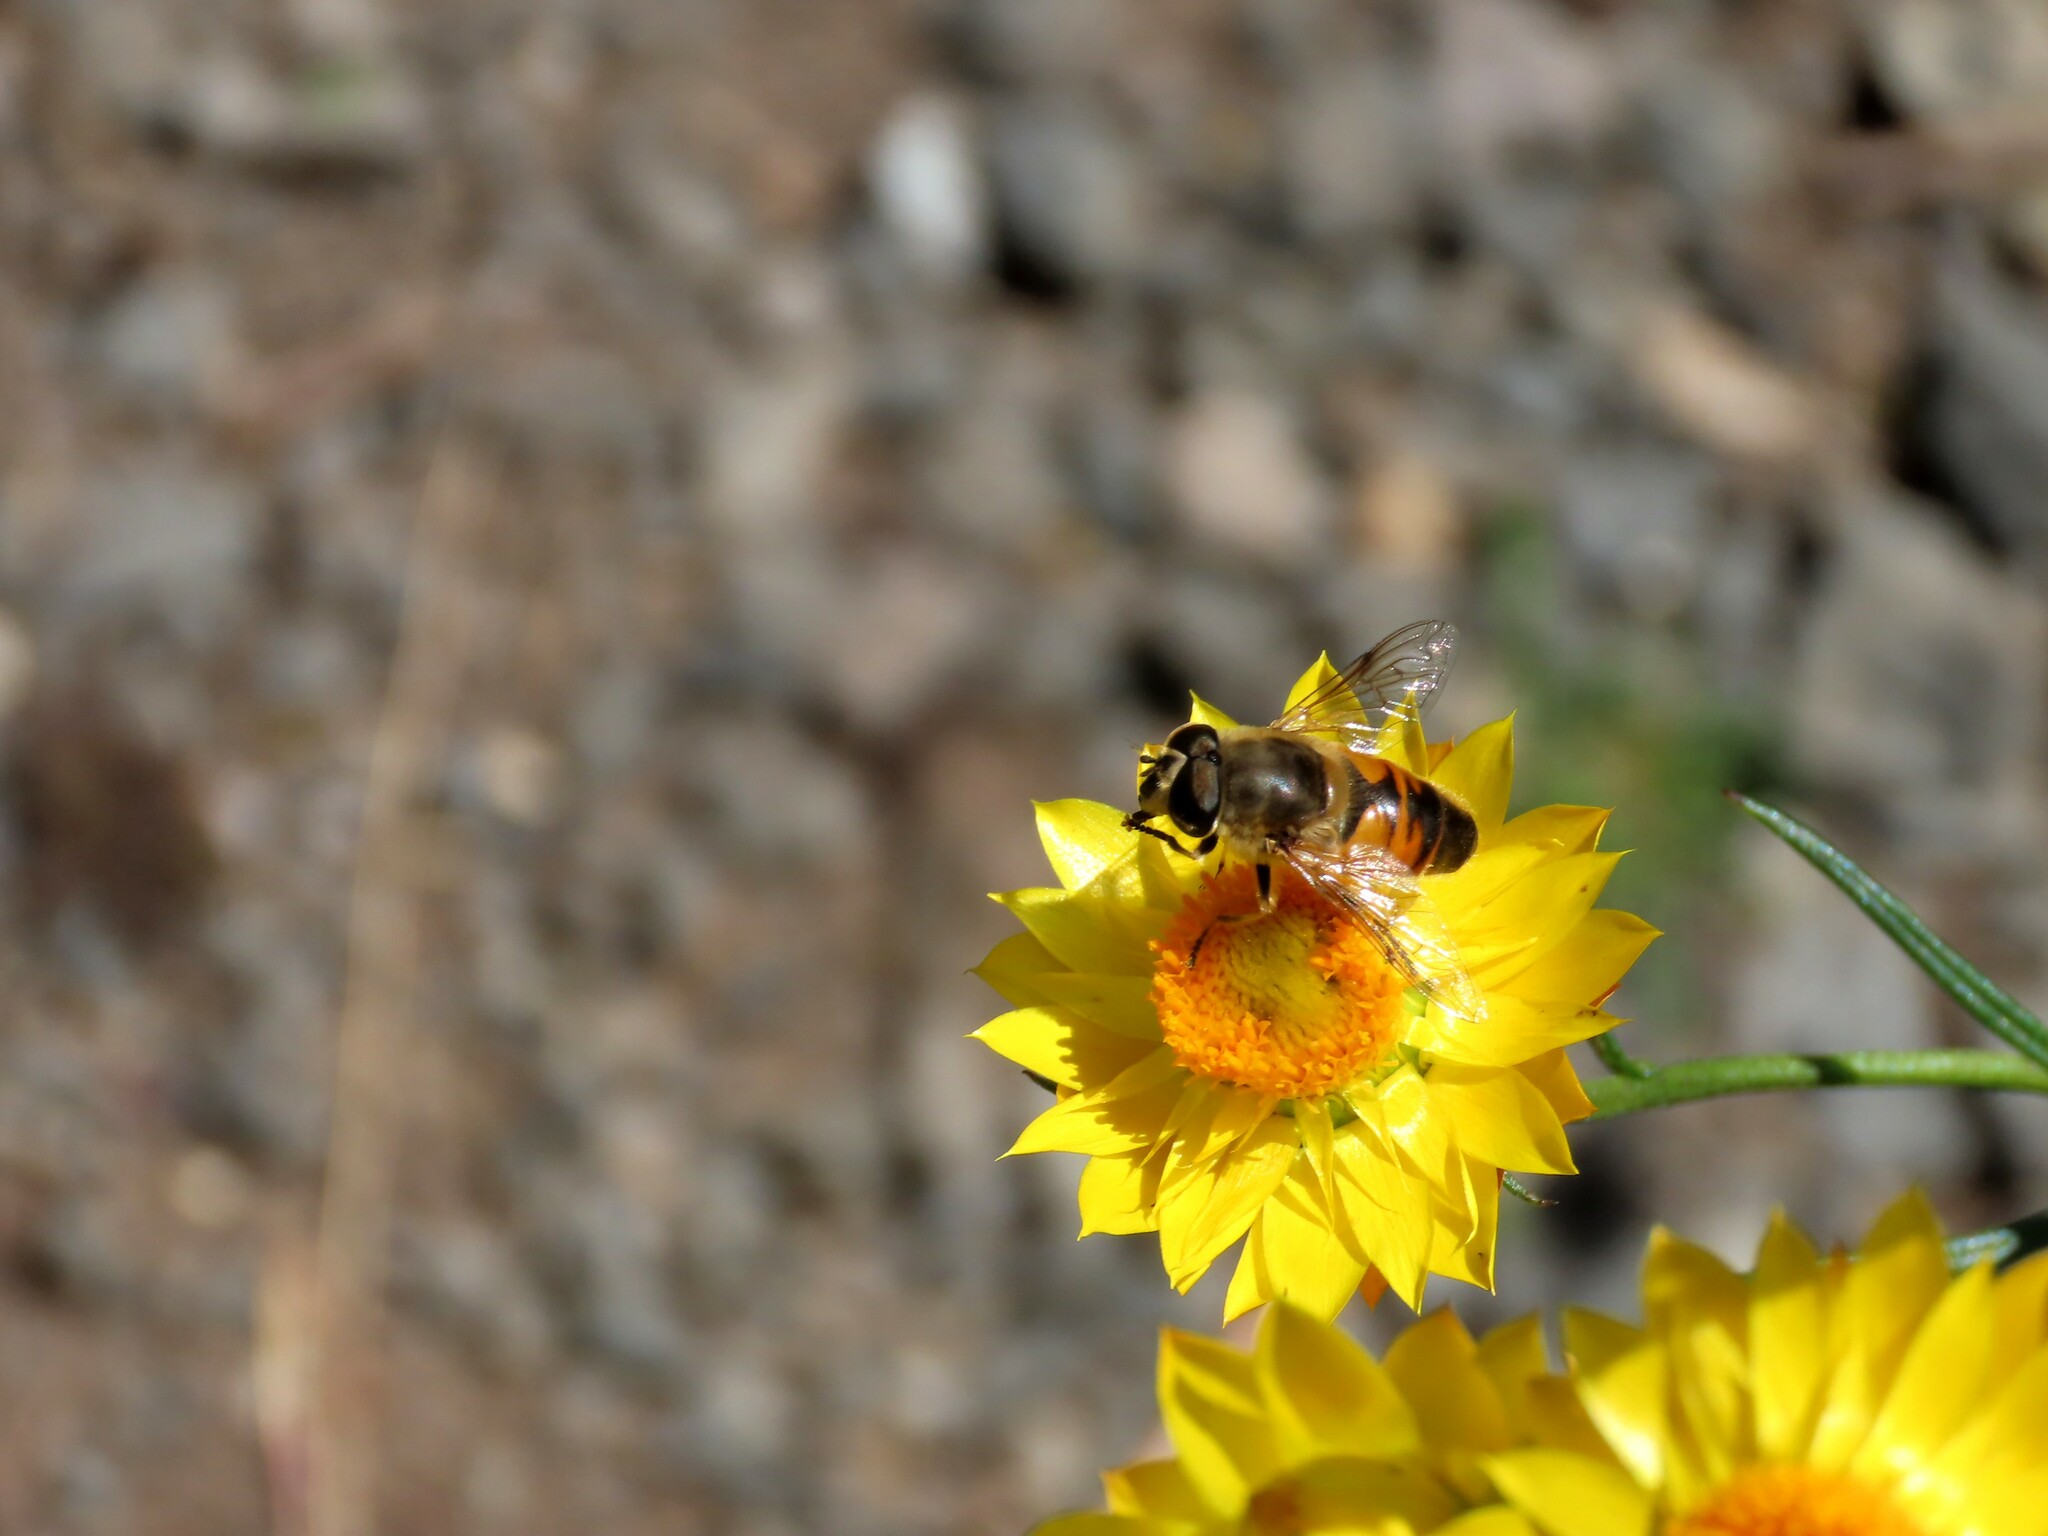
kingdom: Animalia
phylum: Arthropoda
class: Insecta
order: Diptera
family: Syrphidae
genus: Eristalis
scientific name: Eristalis tenax
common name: Drone fly
